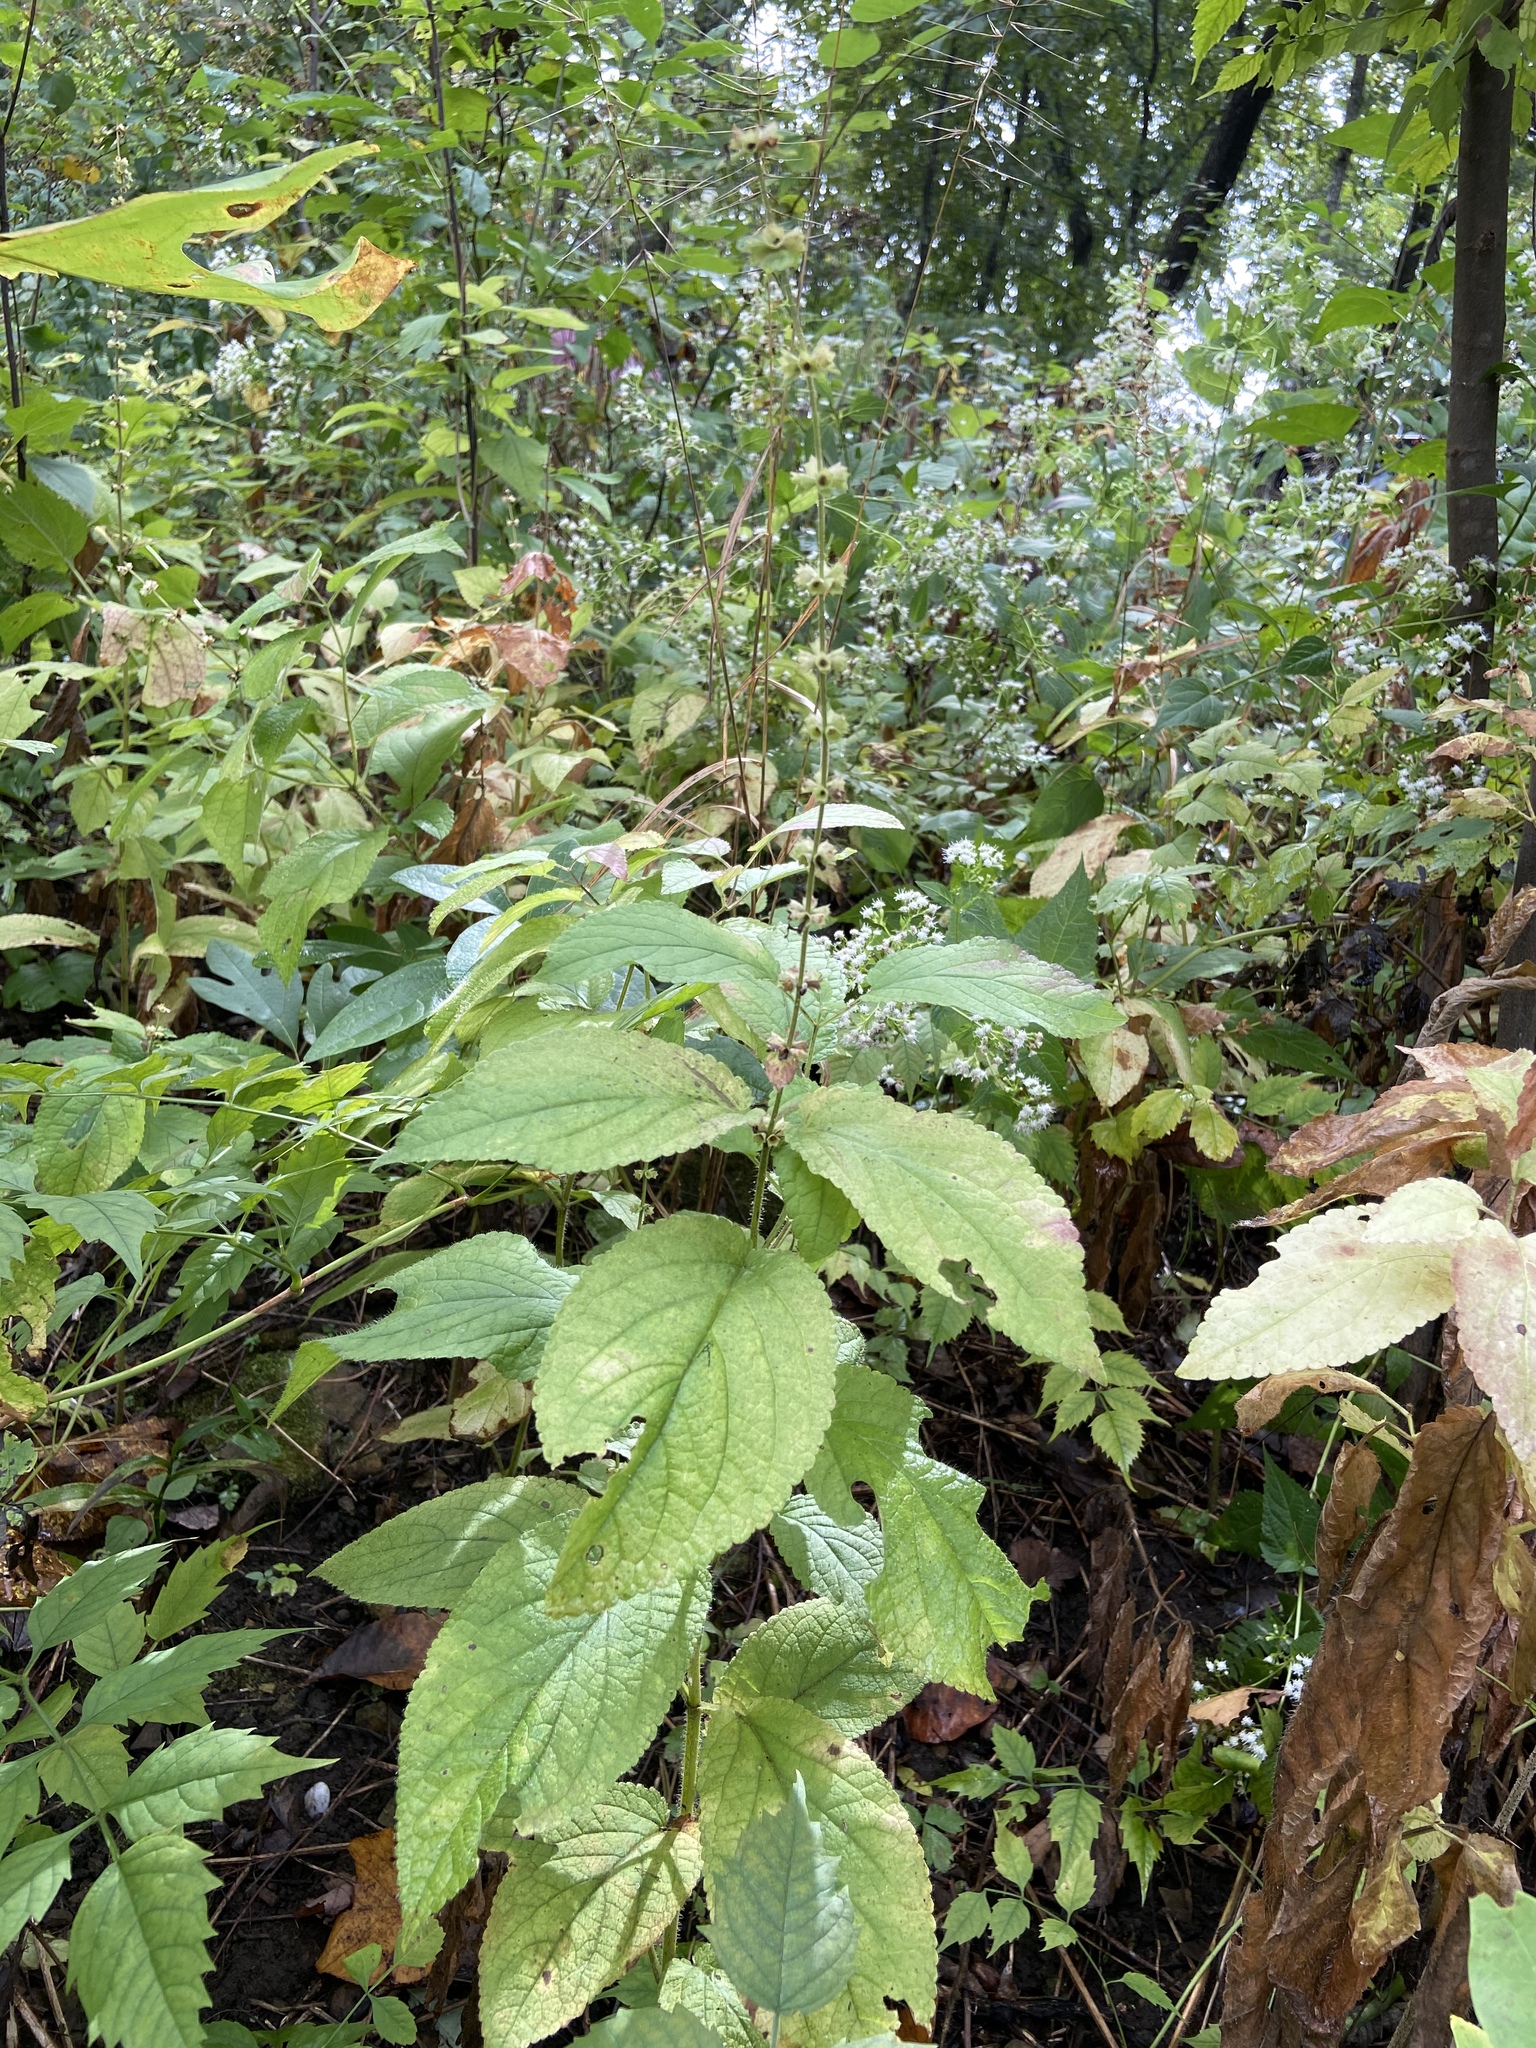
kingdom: Plantae
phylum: Tracheophyta
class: Magnoliopsida
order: Lamiales
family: Lamiaceae
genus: Stachys
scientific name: Stachys cordata
